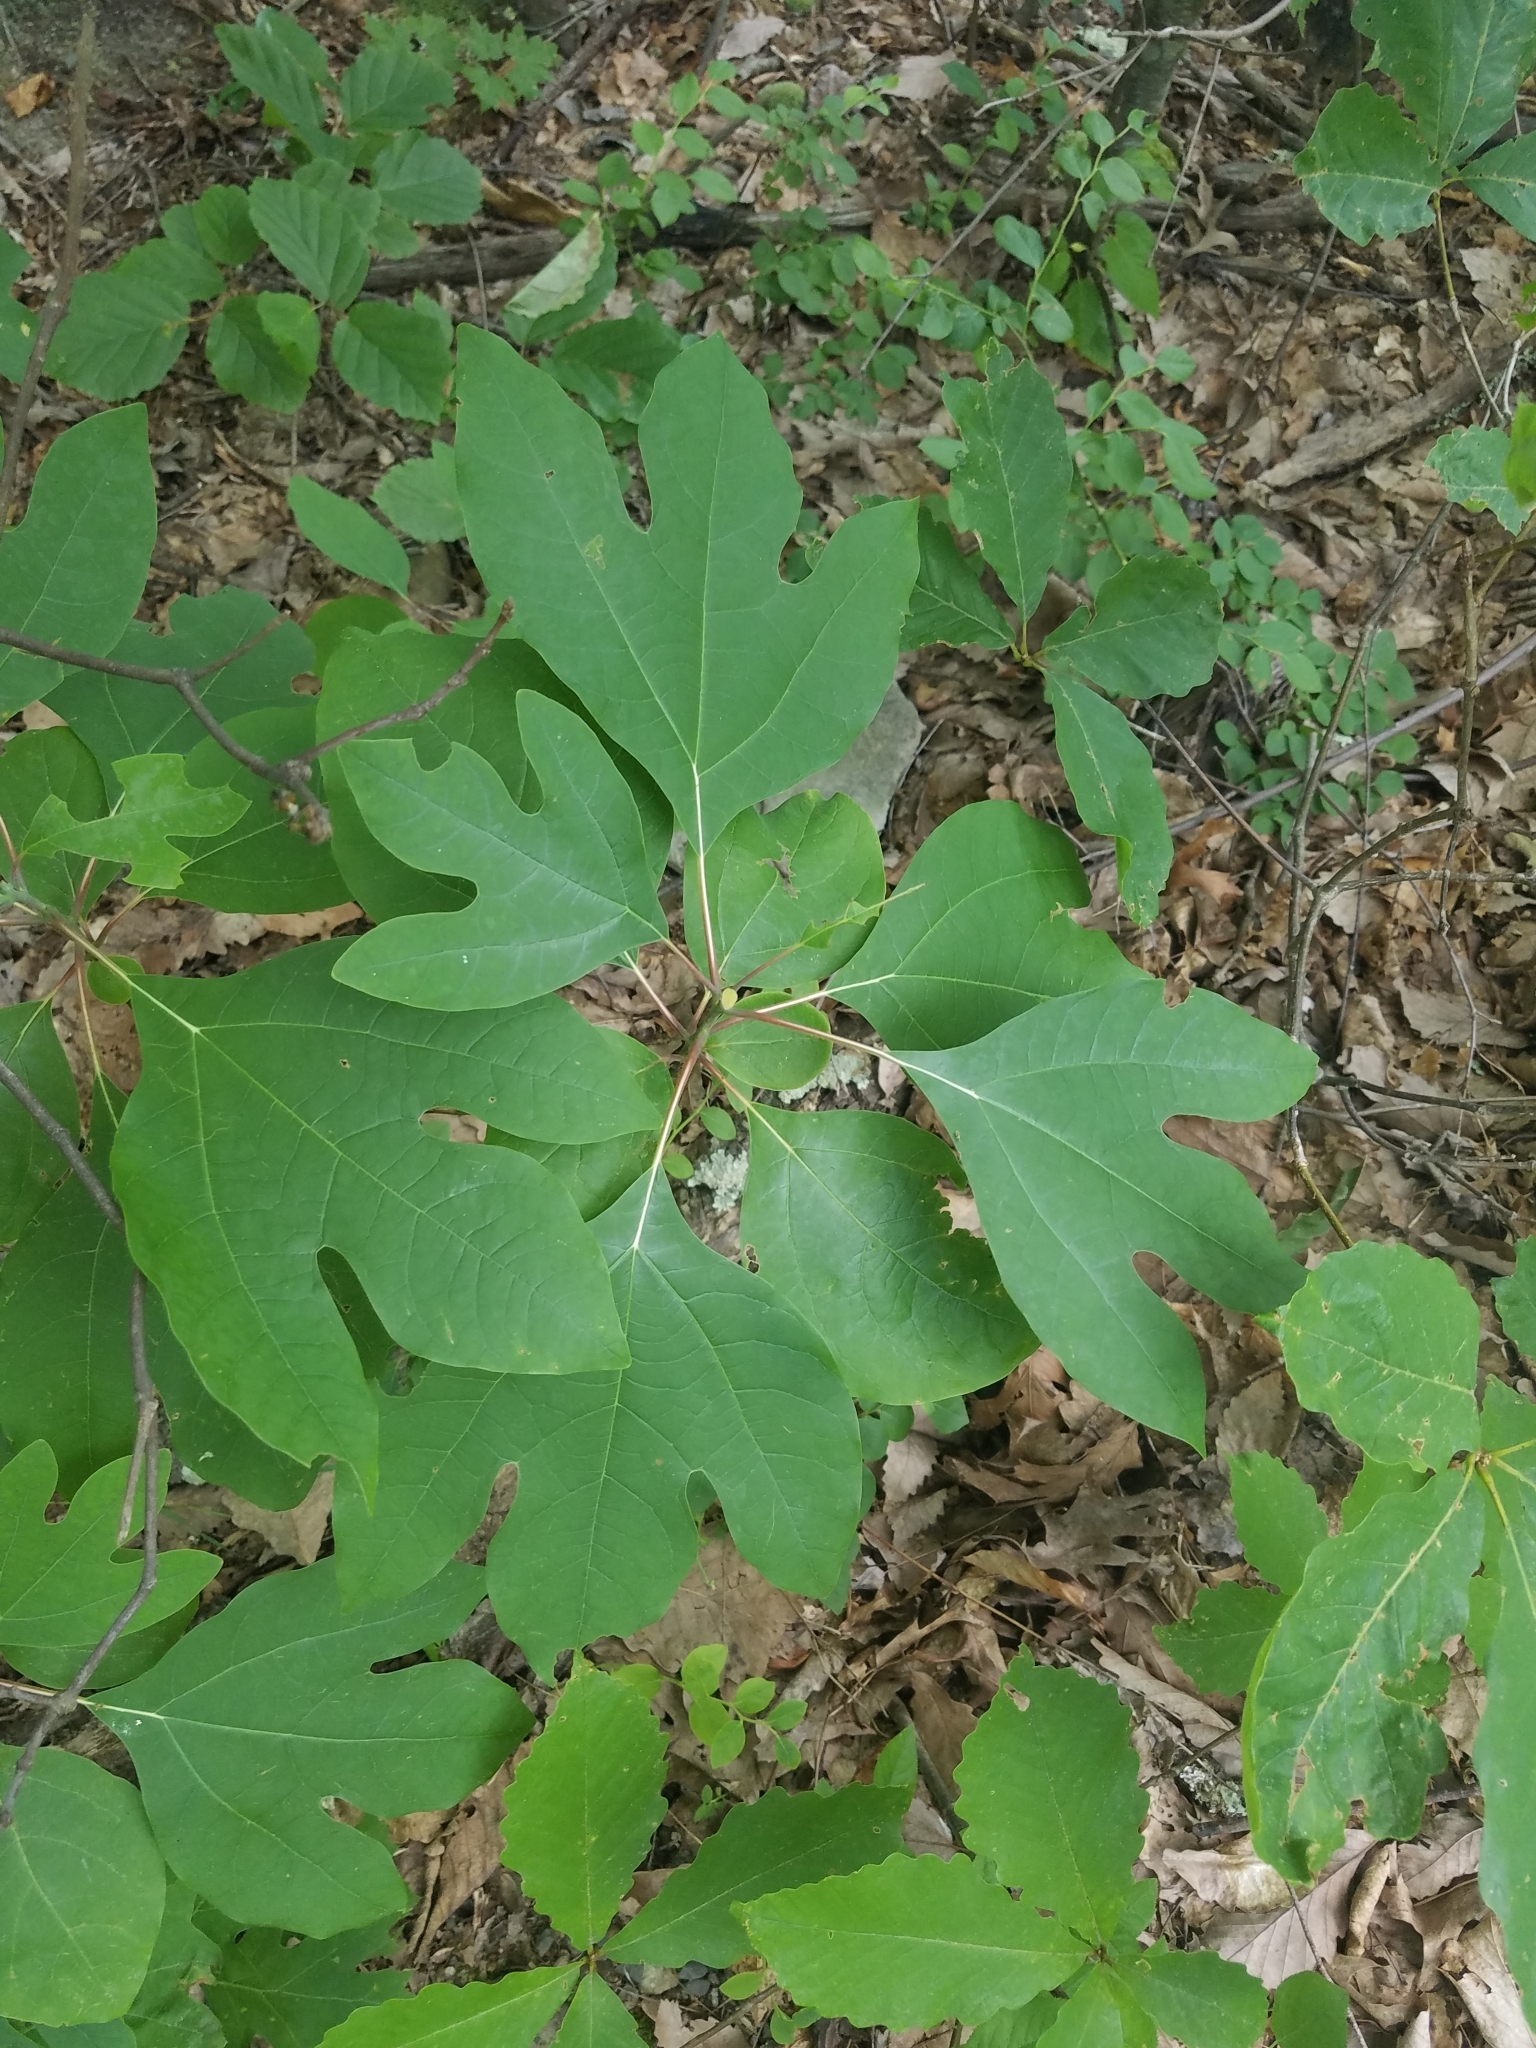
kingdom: Plantae
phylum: Tracheophyta
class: Magnoliopsida
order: Laurales
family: Lauraceae
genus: Sassafras
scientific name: Sassafras albidum
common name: Sassafras
